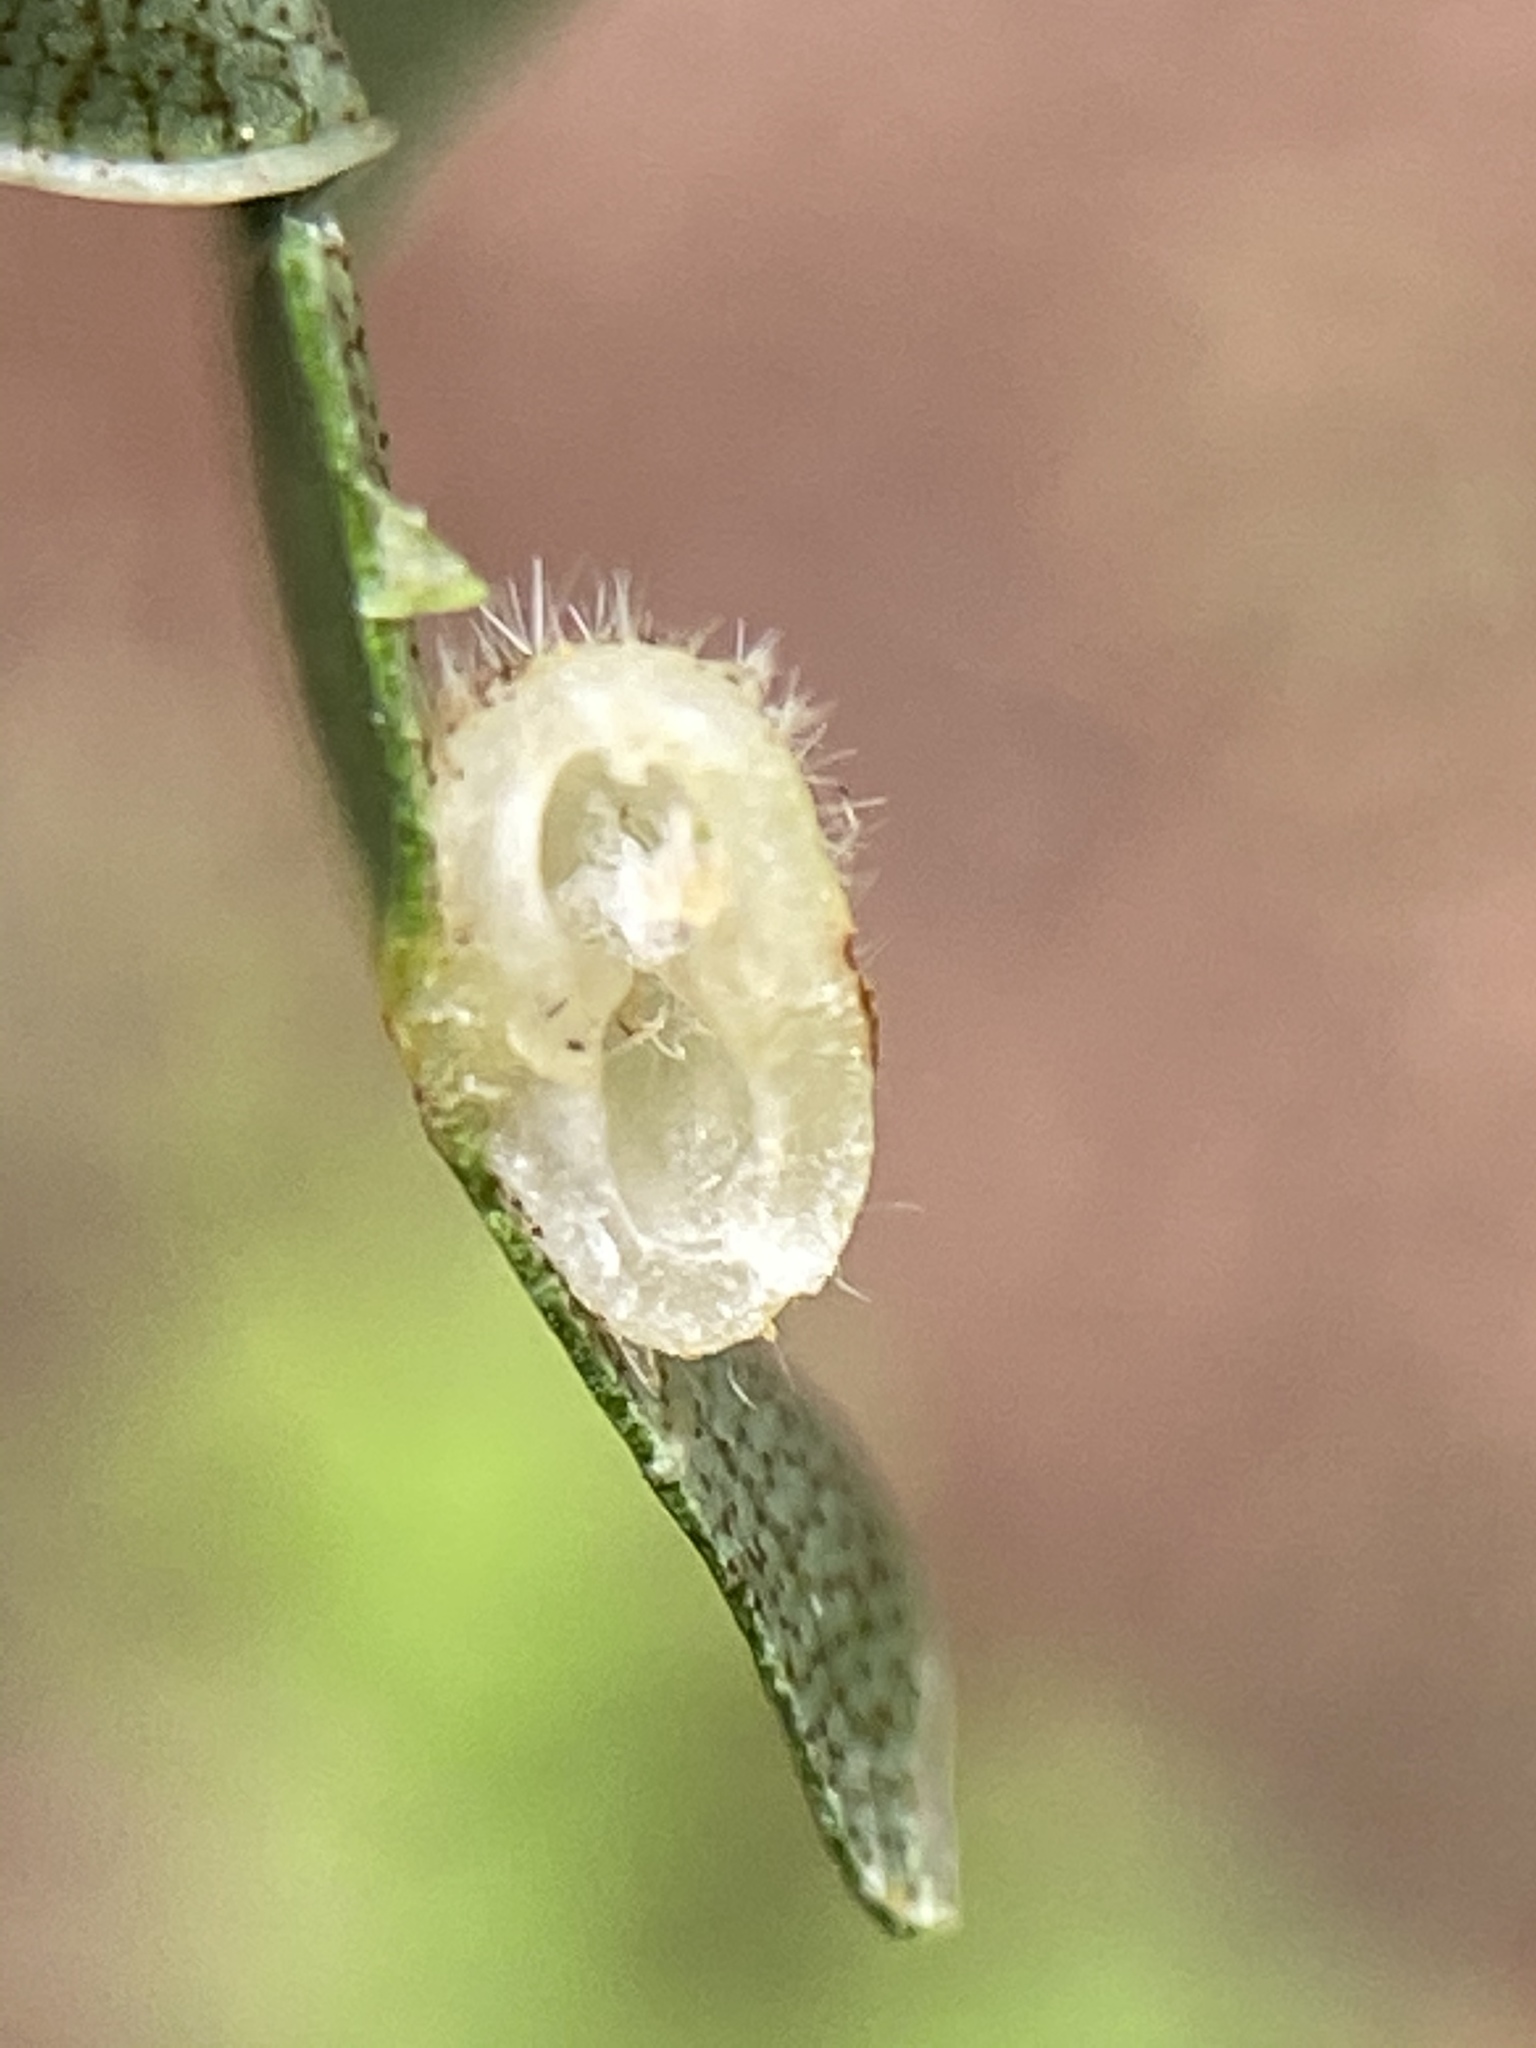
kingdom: Animalia
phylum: Arthropoda
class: Insecta
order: Diptera
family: Cecidomyiidae
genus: Caryomyia
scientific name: Caryomyia thompsoni
